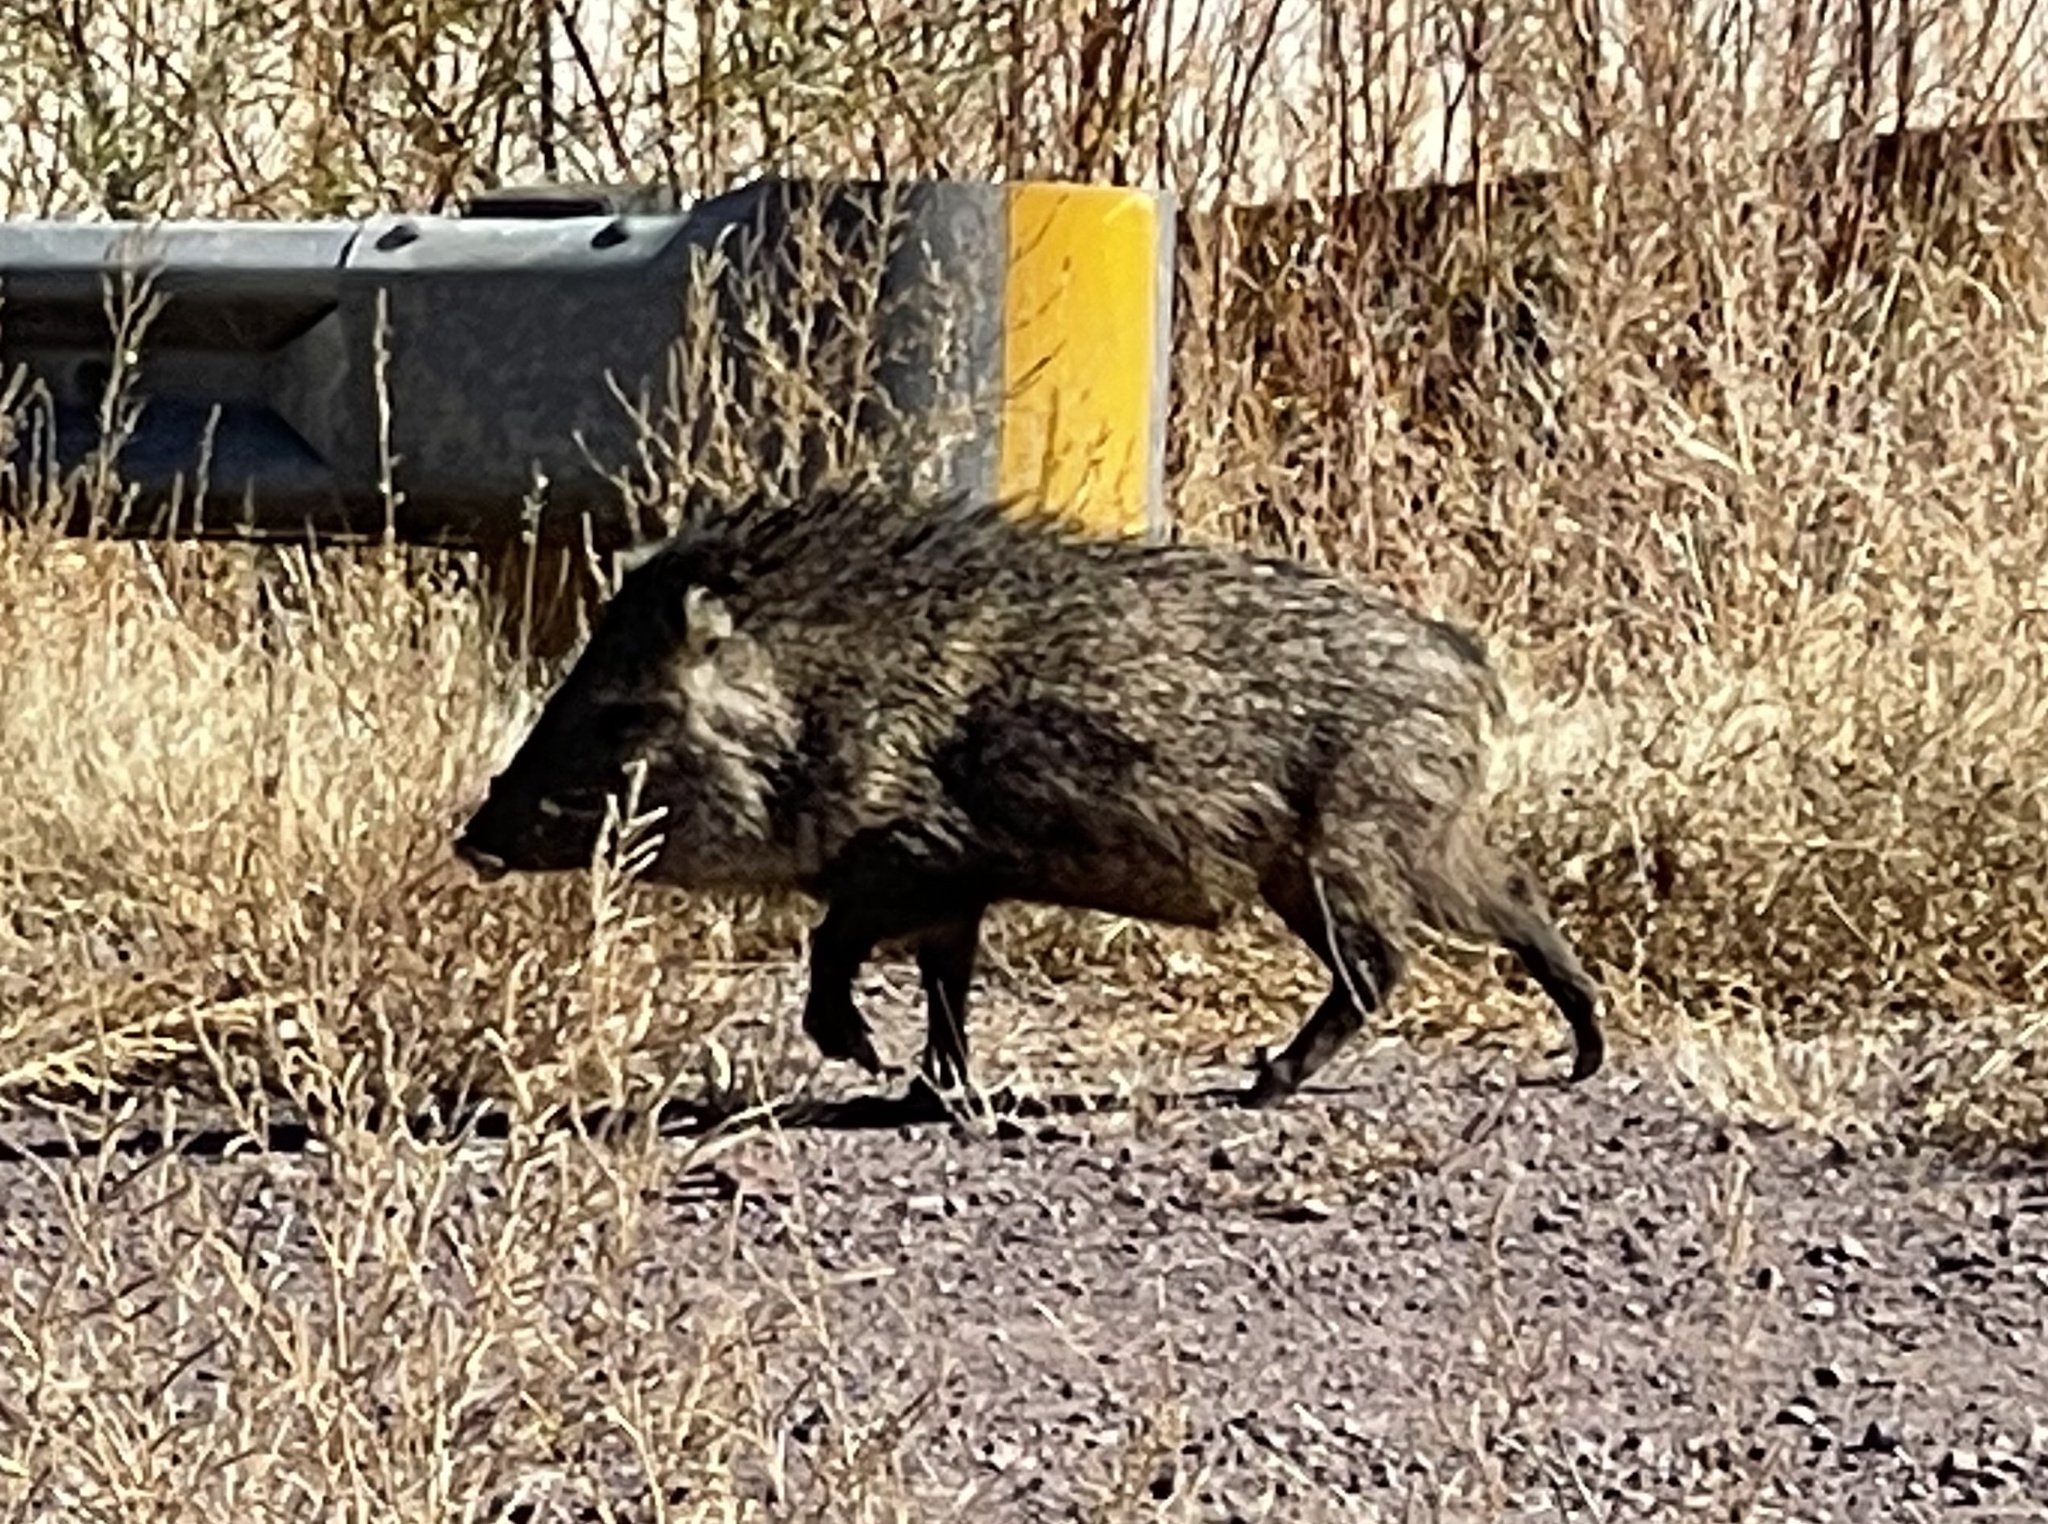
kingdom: Animalia
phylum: Chordata
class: Mammalia
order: Artiodactyla
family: Tayassuidae
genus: Pecari
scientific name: Pecari tajacu
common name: Collared peccary
